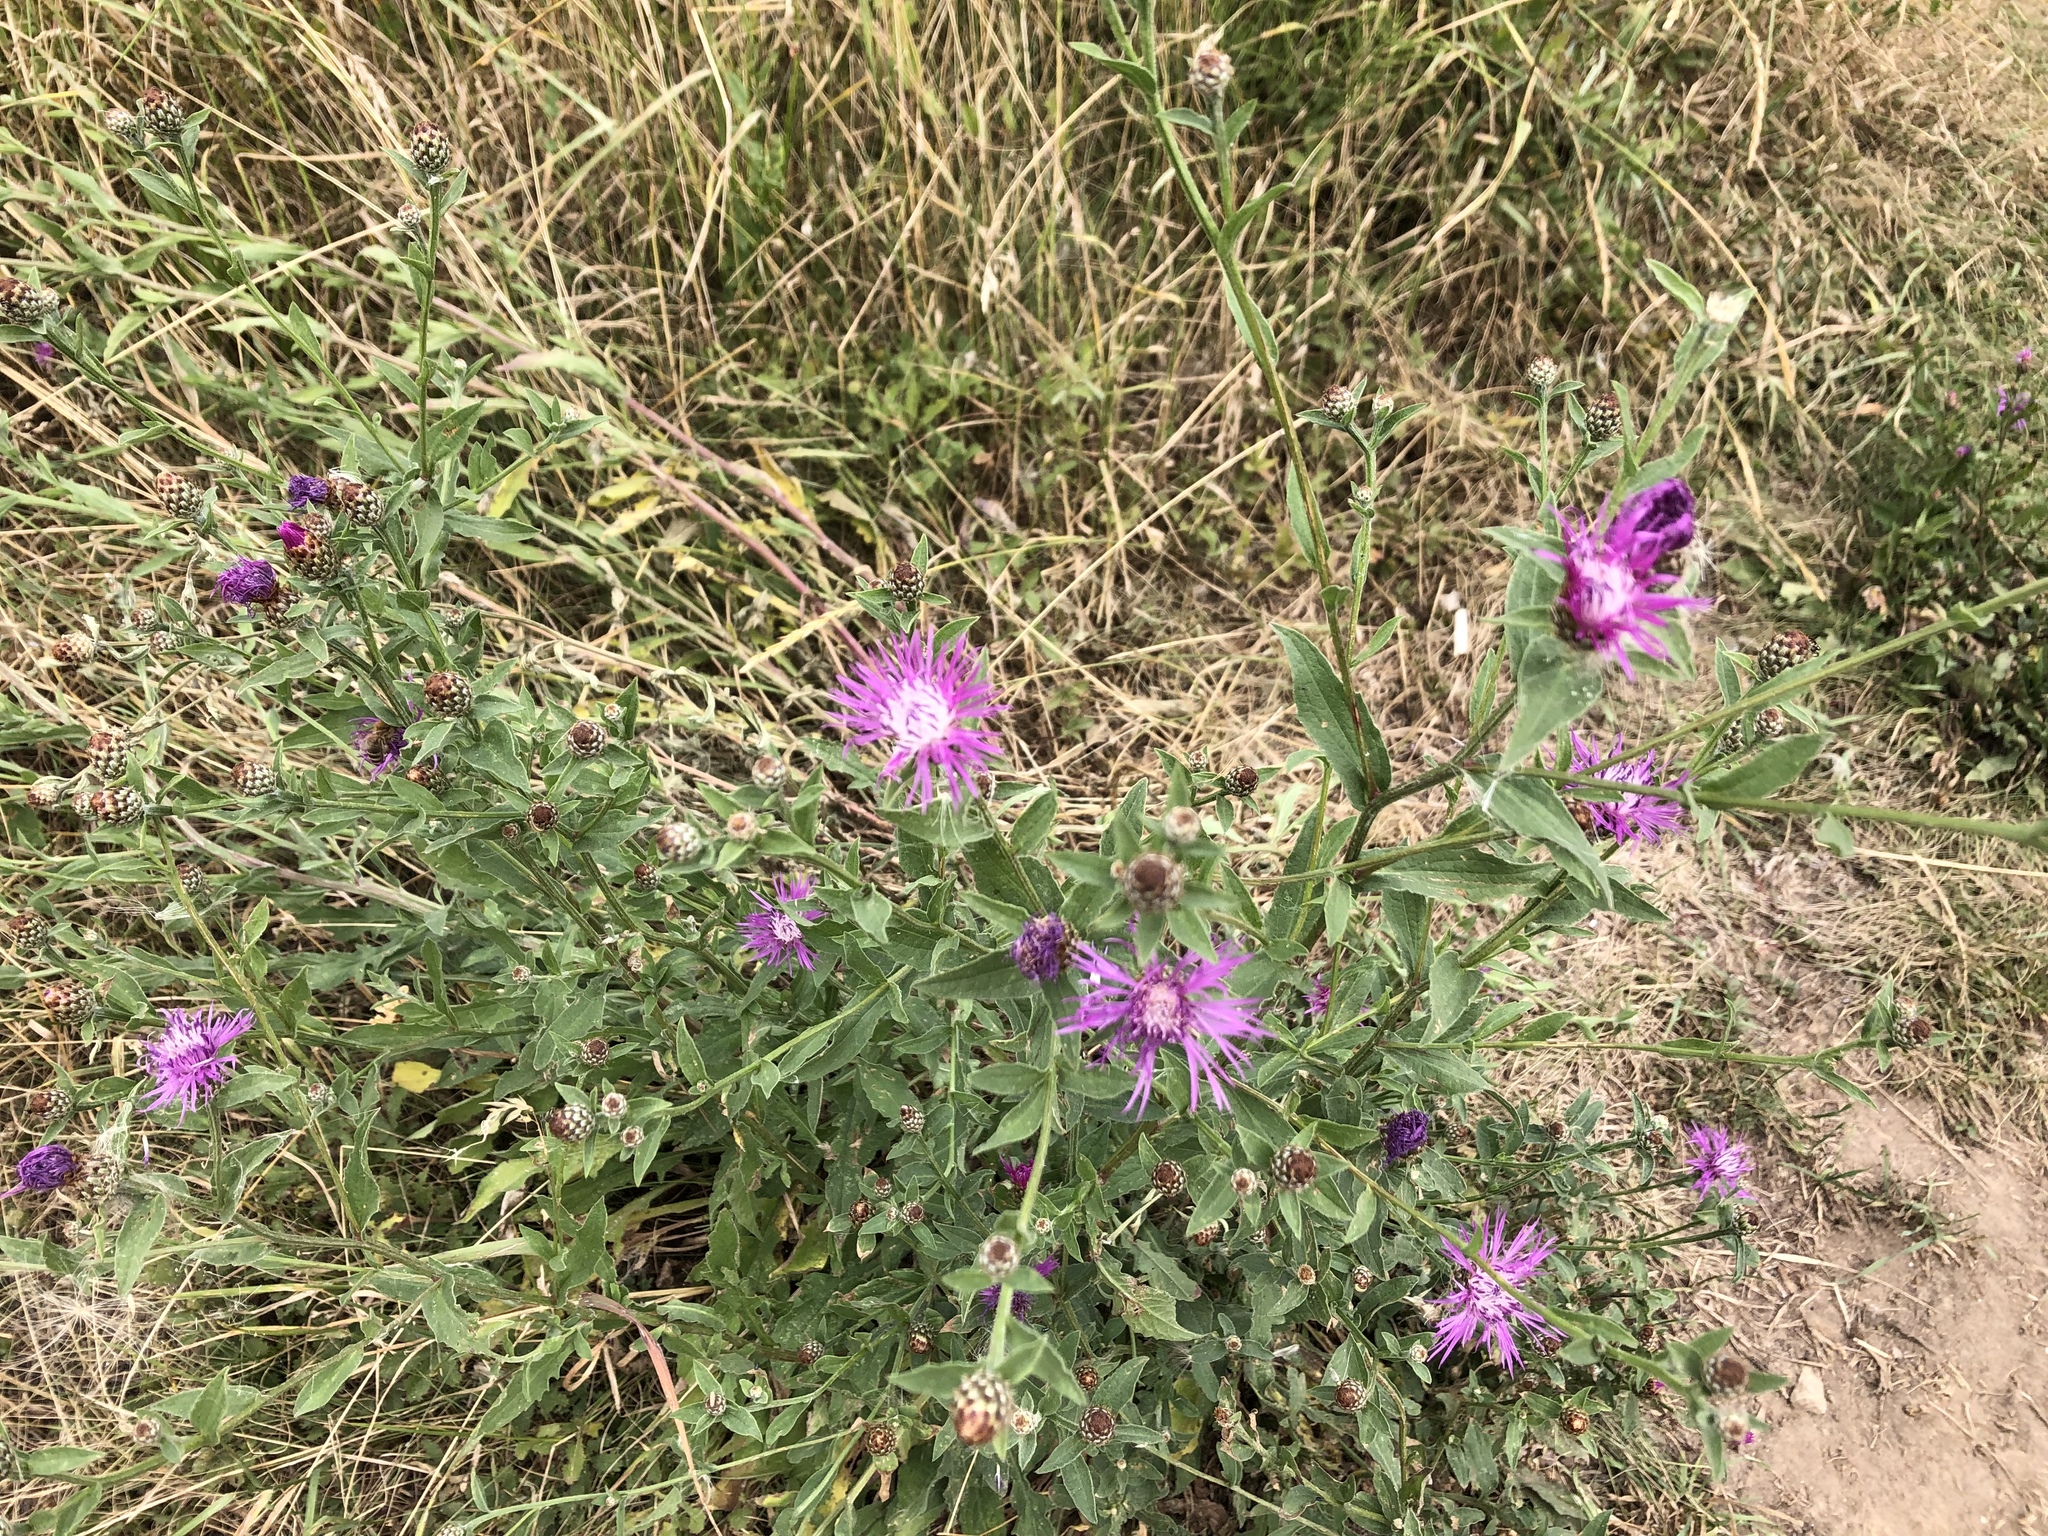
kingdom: Plantae
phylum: Tracheophyta
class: Magnoliopsida
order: Asterales
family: Asteraceae
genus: Centaurea
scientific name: Centaurea nigrescens
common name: Tyrol knapweed
